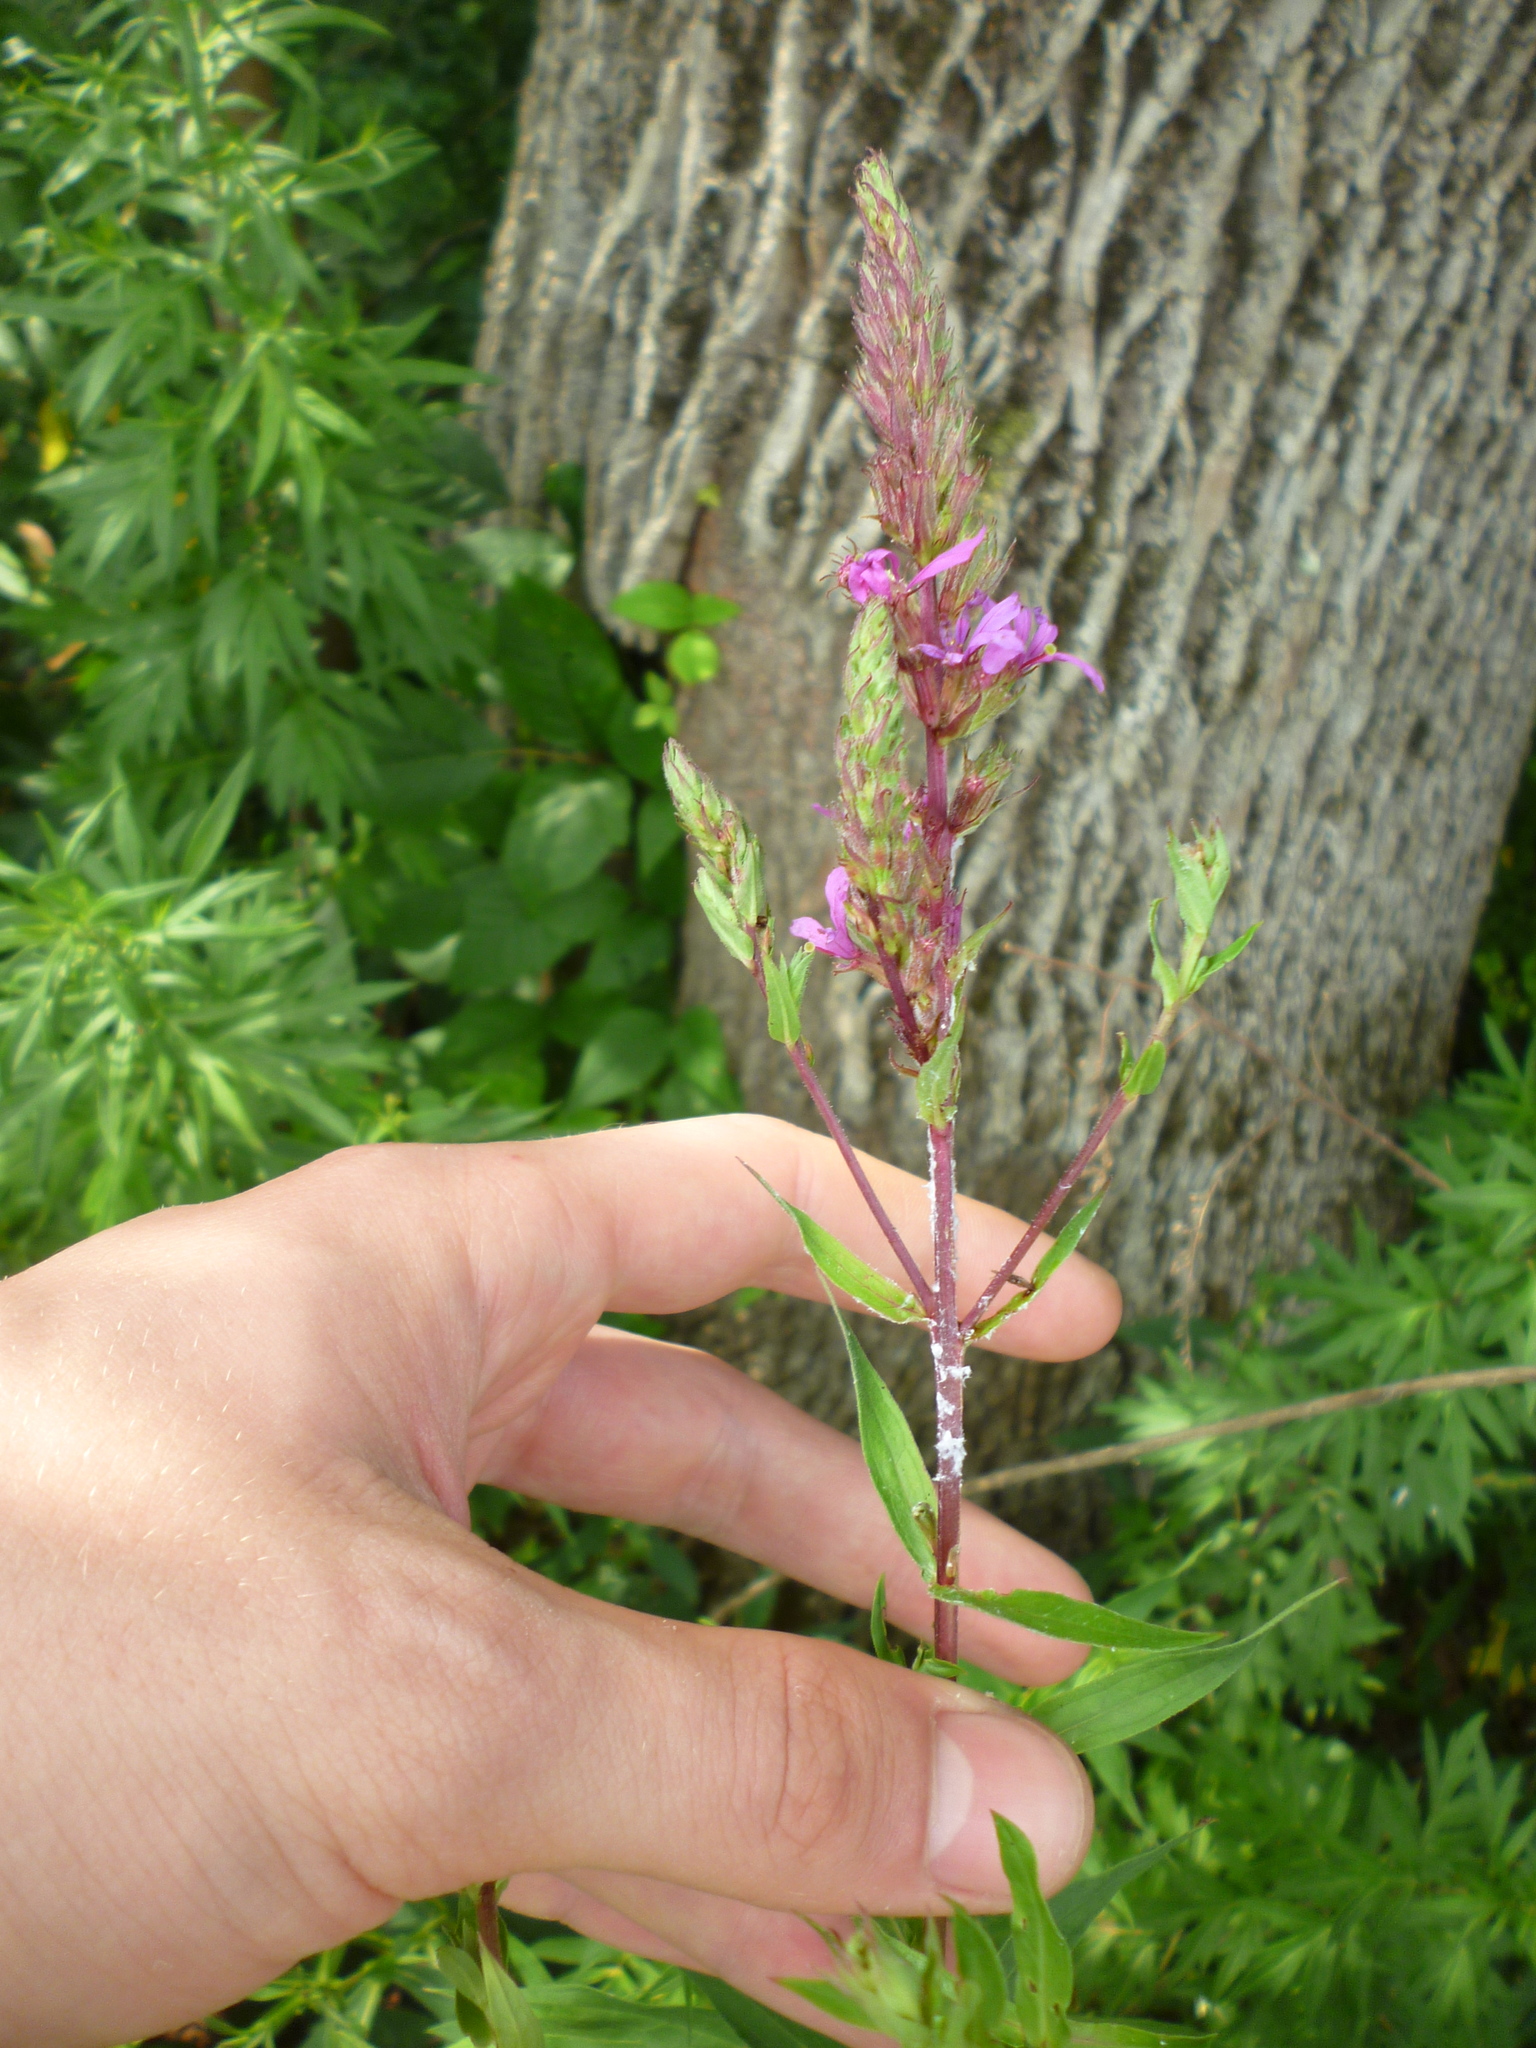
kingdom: Plantae
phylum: Tracheophyta
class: Magnoliopsida
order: Myrtales
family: Lythraceae
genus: Lythrum
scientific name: Lythrum salicaria
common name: Purple loosestrife
